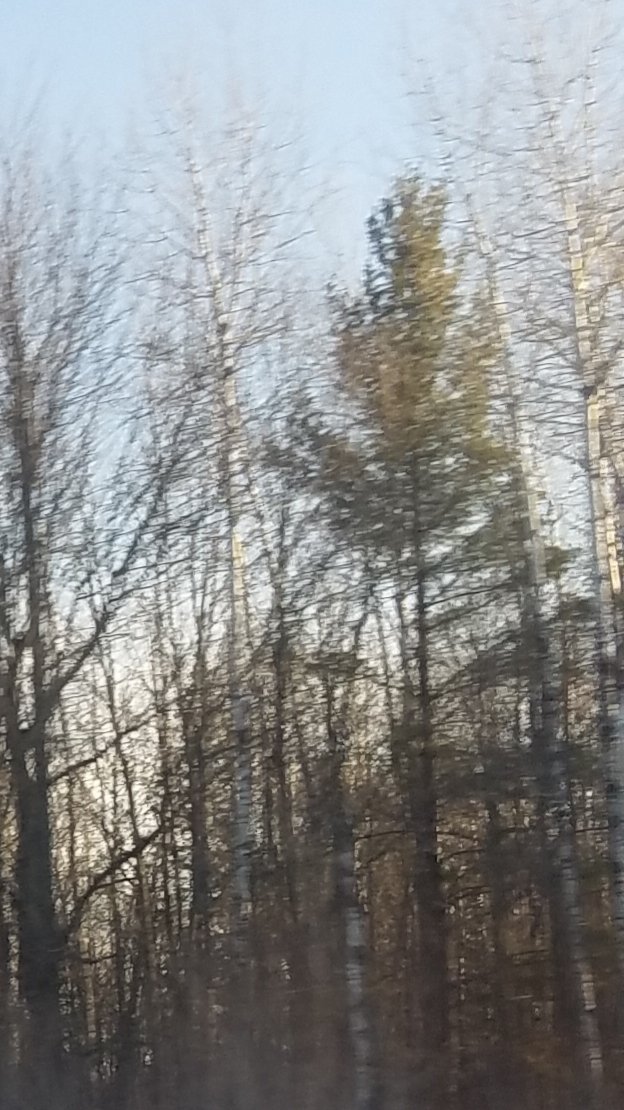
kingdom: Plantae
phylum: Tracheophyta
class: Pinopsida
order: Pinales
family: Pinaceae
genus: Pinus
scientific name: Pinus strobus
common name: Weymouth pine
